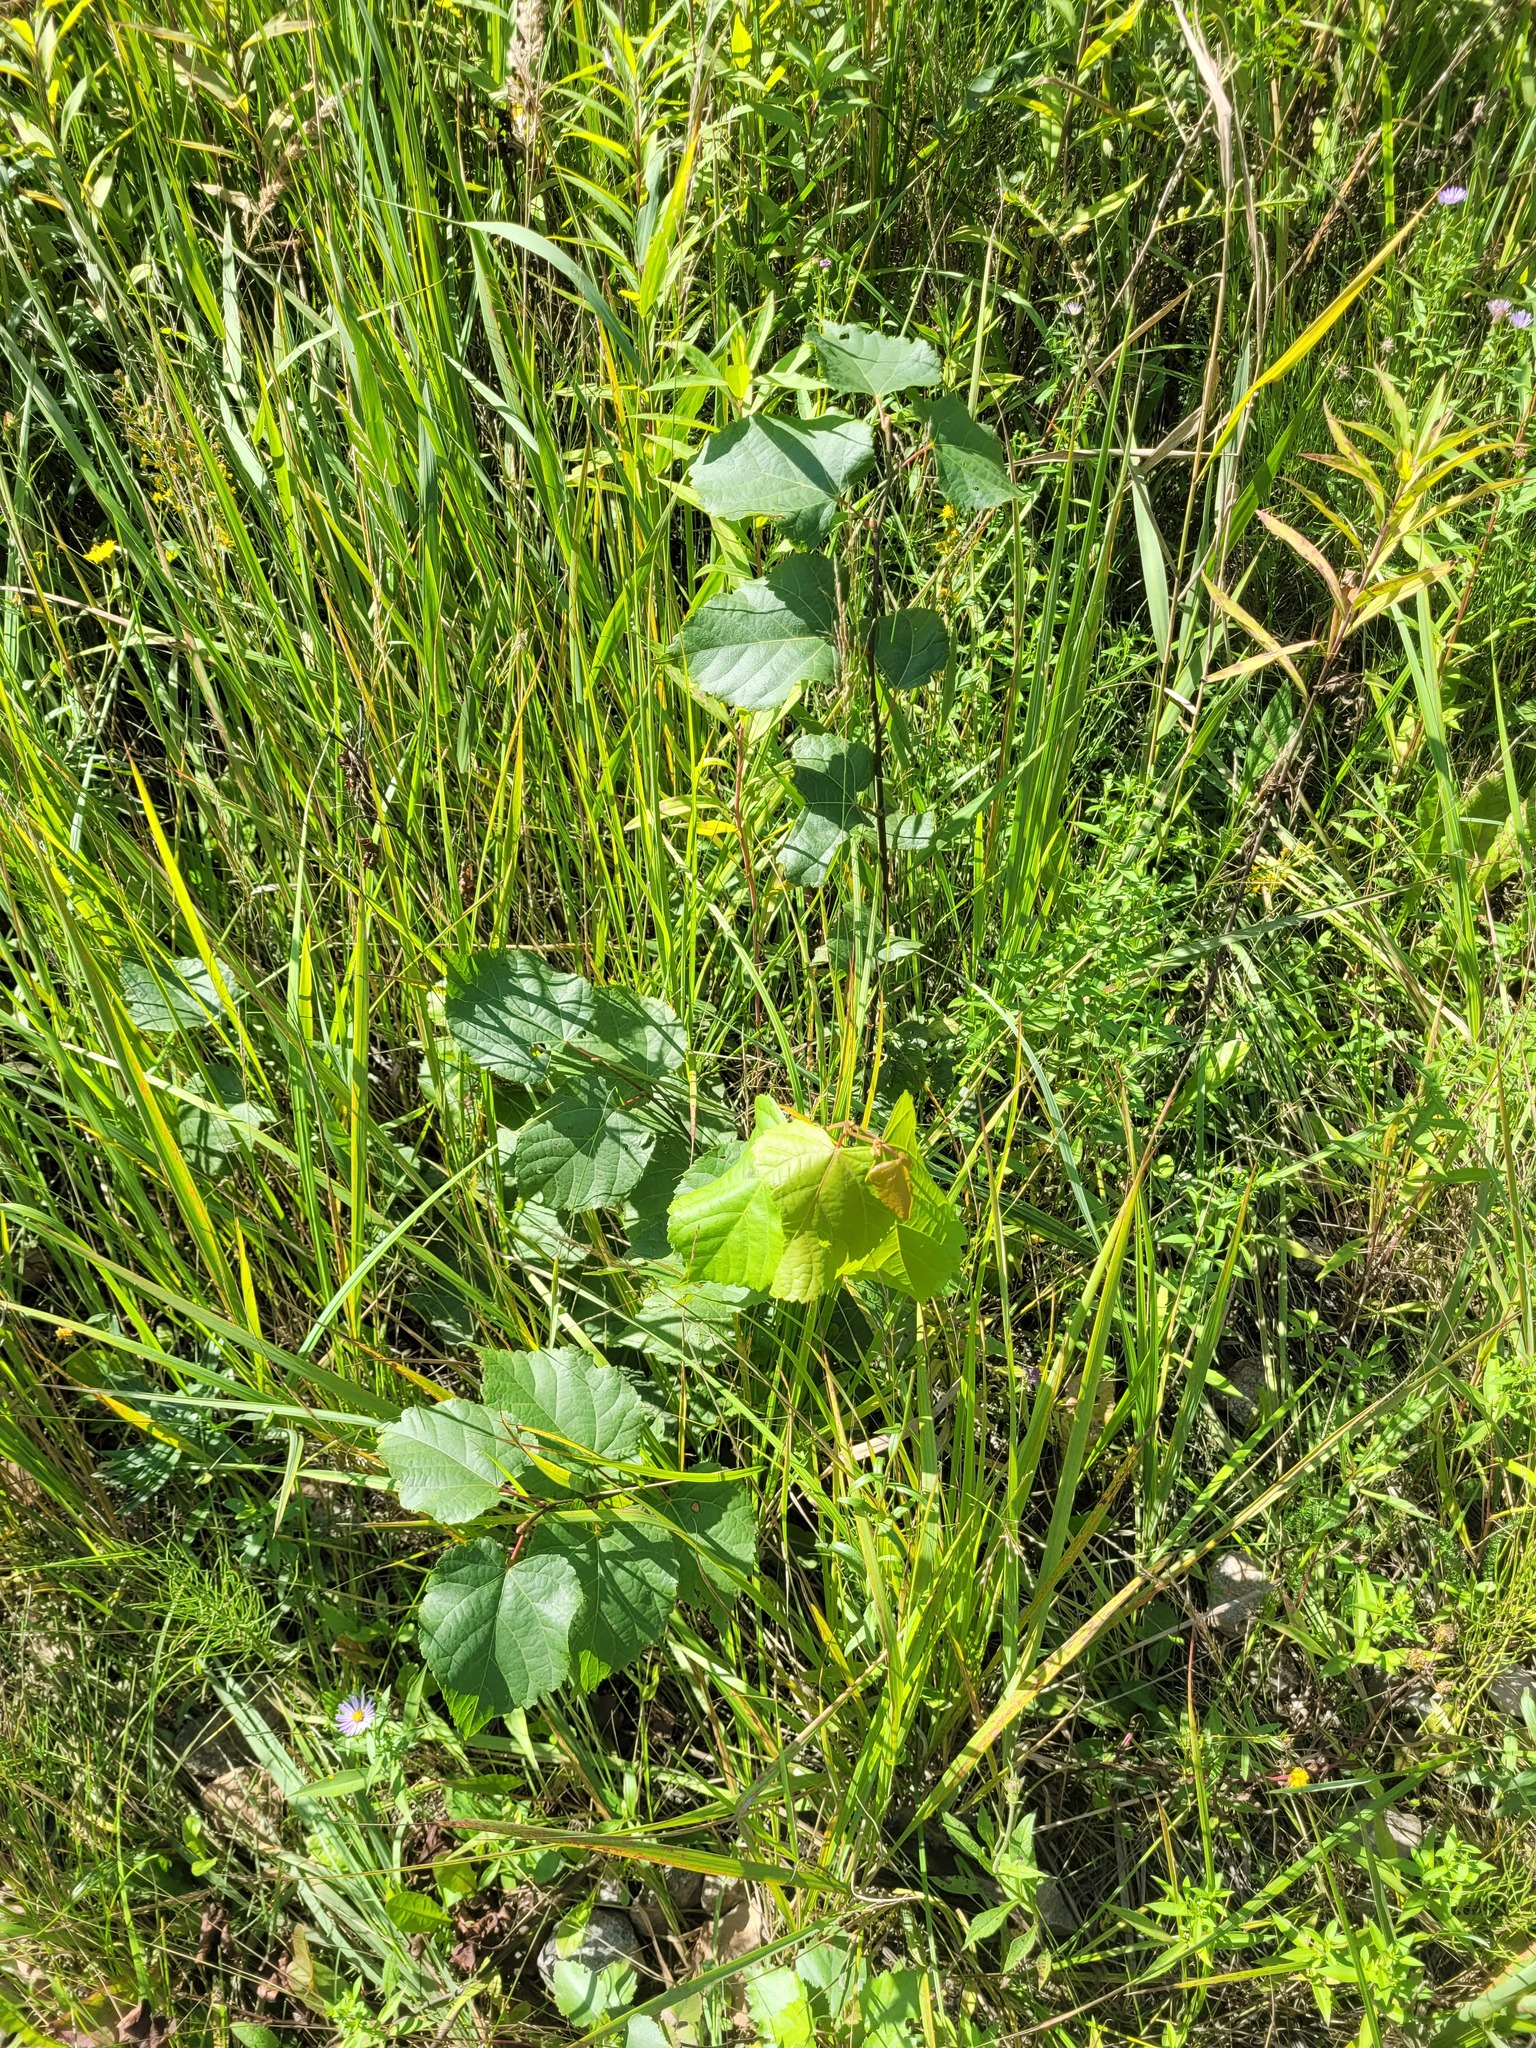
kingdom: Plantae
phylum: Tracheophyta
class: Magnoliopsida
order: Malvales
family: Malvaceae
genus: Tilia
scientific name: Tilia cordata
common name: Small-leaved lime
